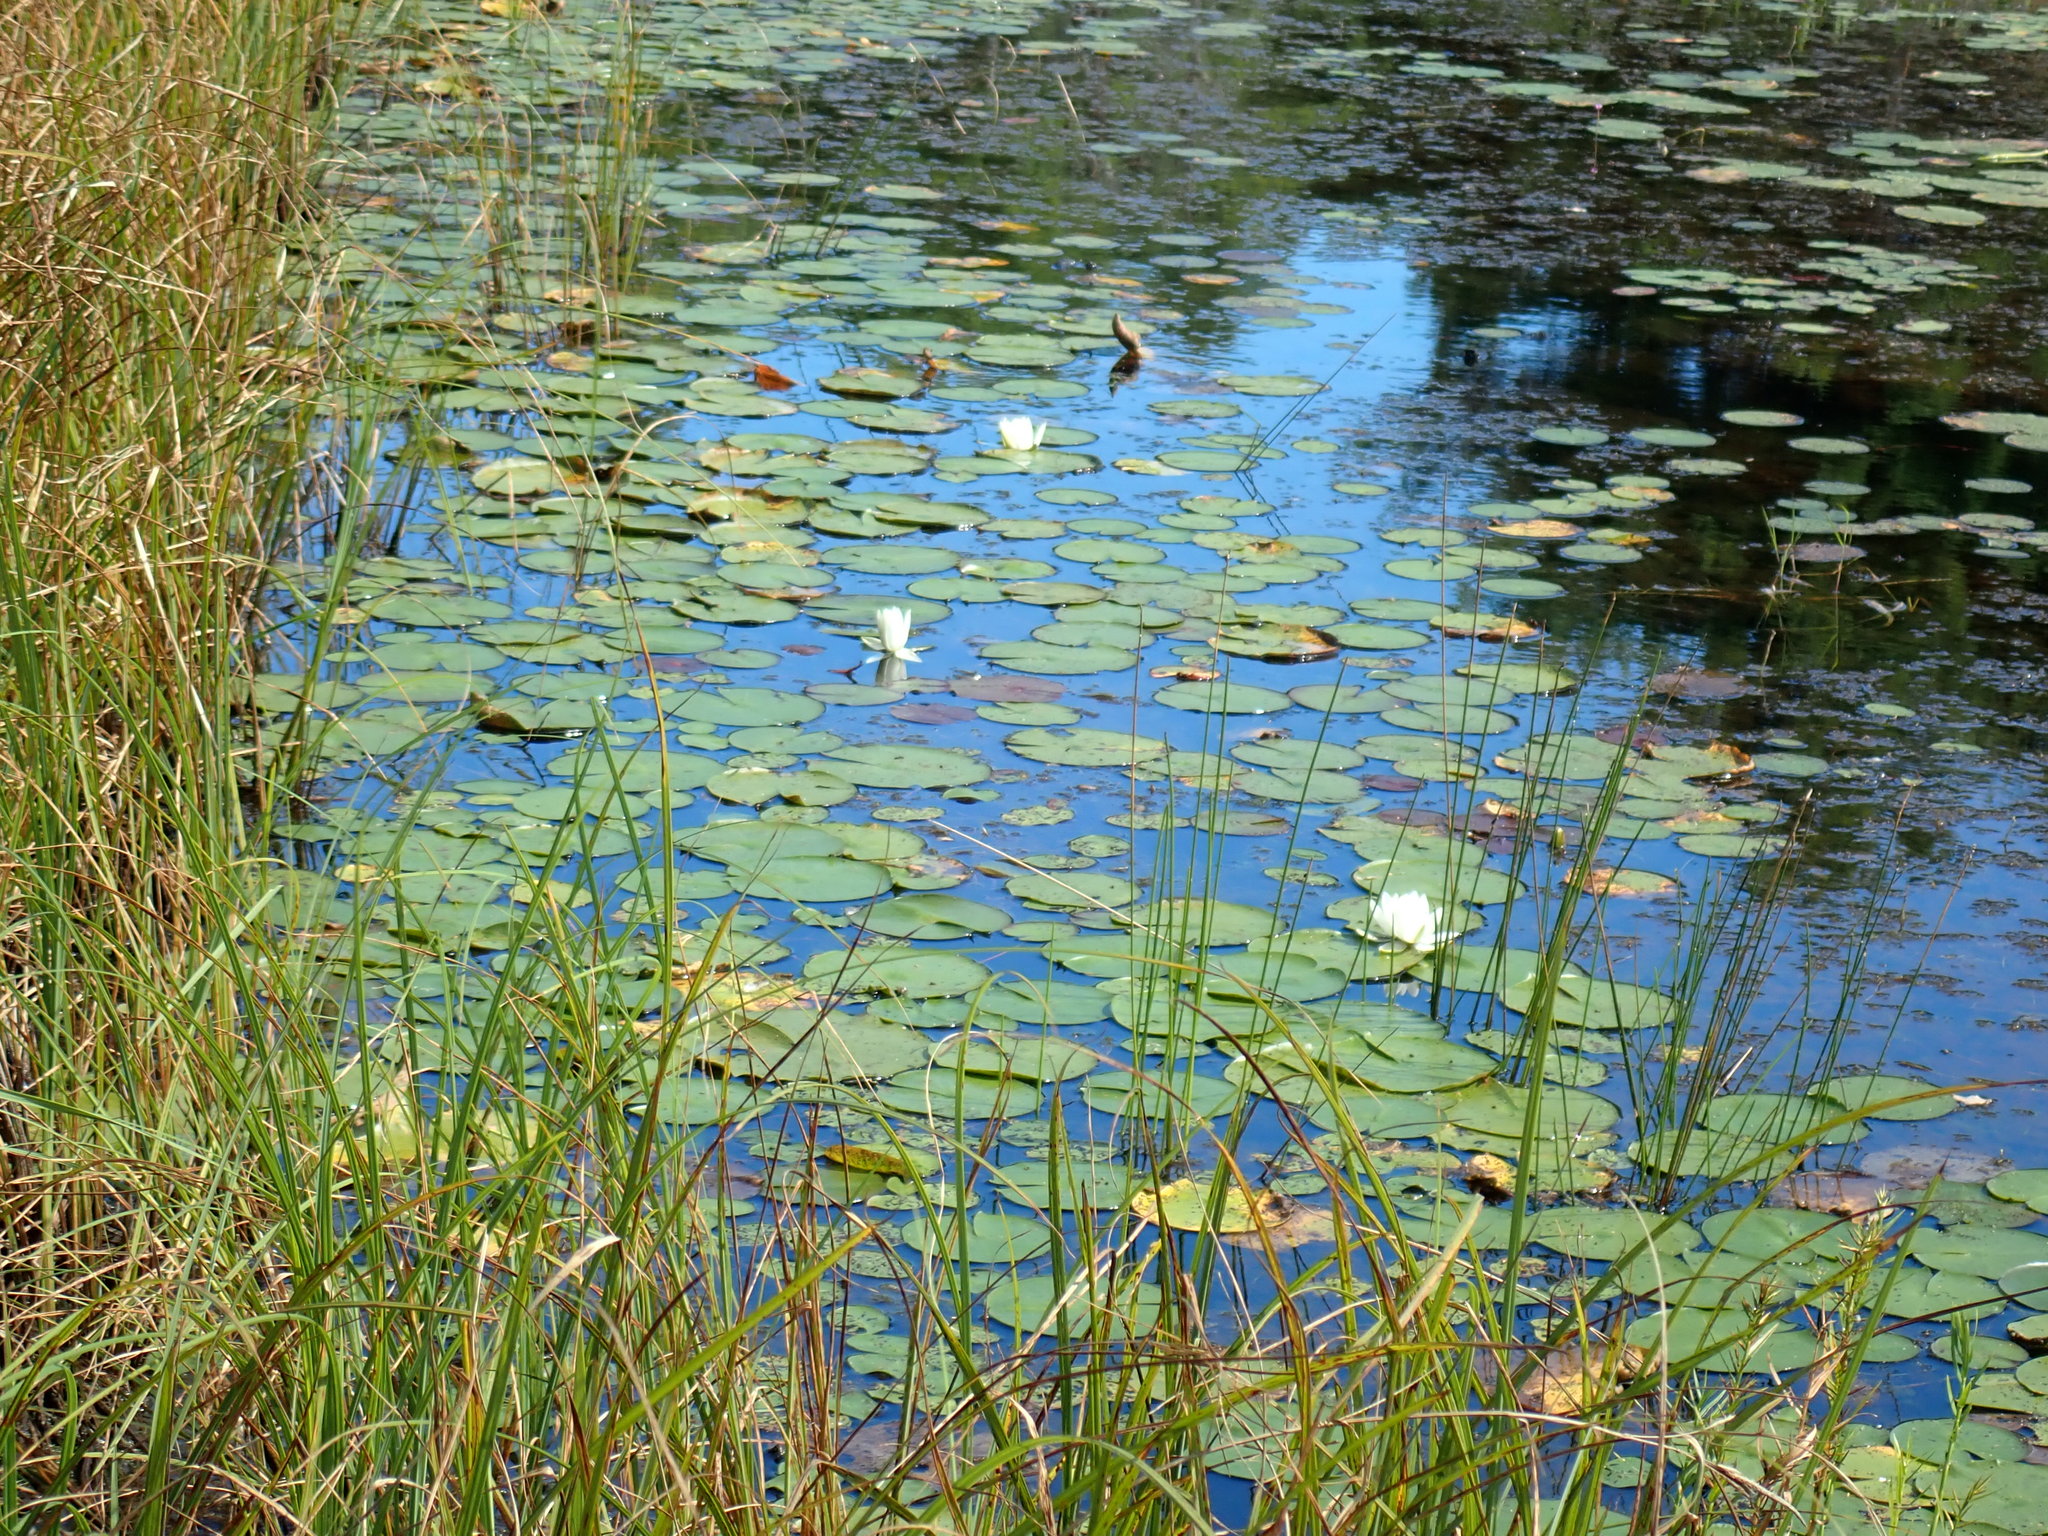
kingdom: Plantae
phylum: Tracheophyta
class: Magnoliopsida
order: Nymphaeales
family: Nymphaeaceae
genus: Nymphaea
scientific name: Nymphaea odorata
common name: Fragrant water-lily
